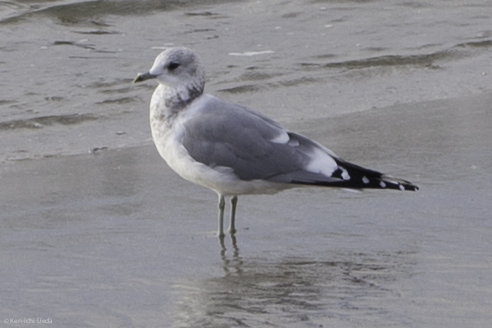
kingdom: Animalia
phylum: Chordata
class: Aves
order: Charadriiformes
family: Laridae
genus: Larus
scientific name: Larus brachyrhynchus
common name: Short-billed gull
